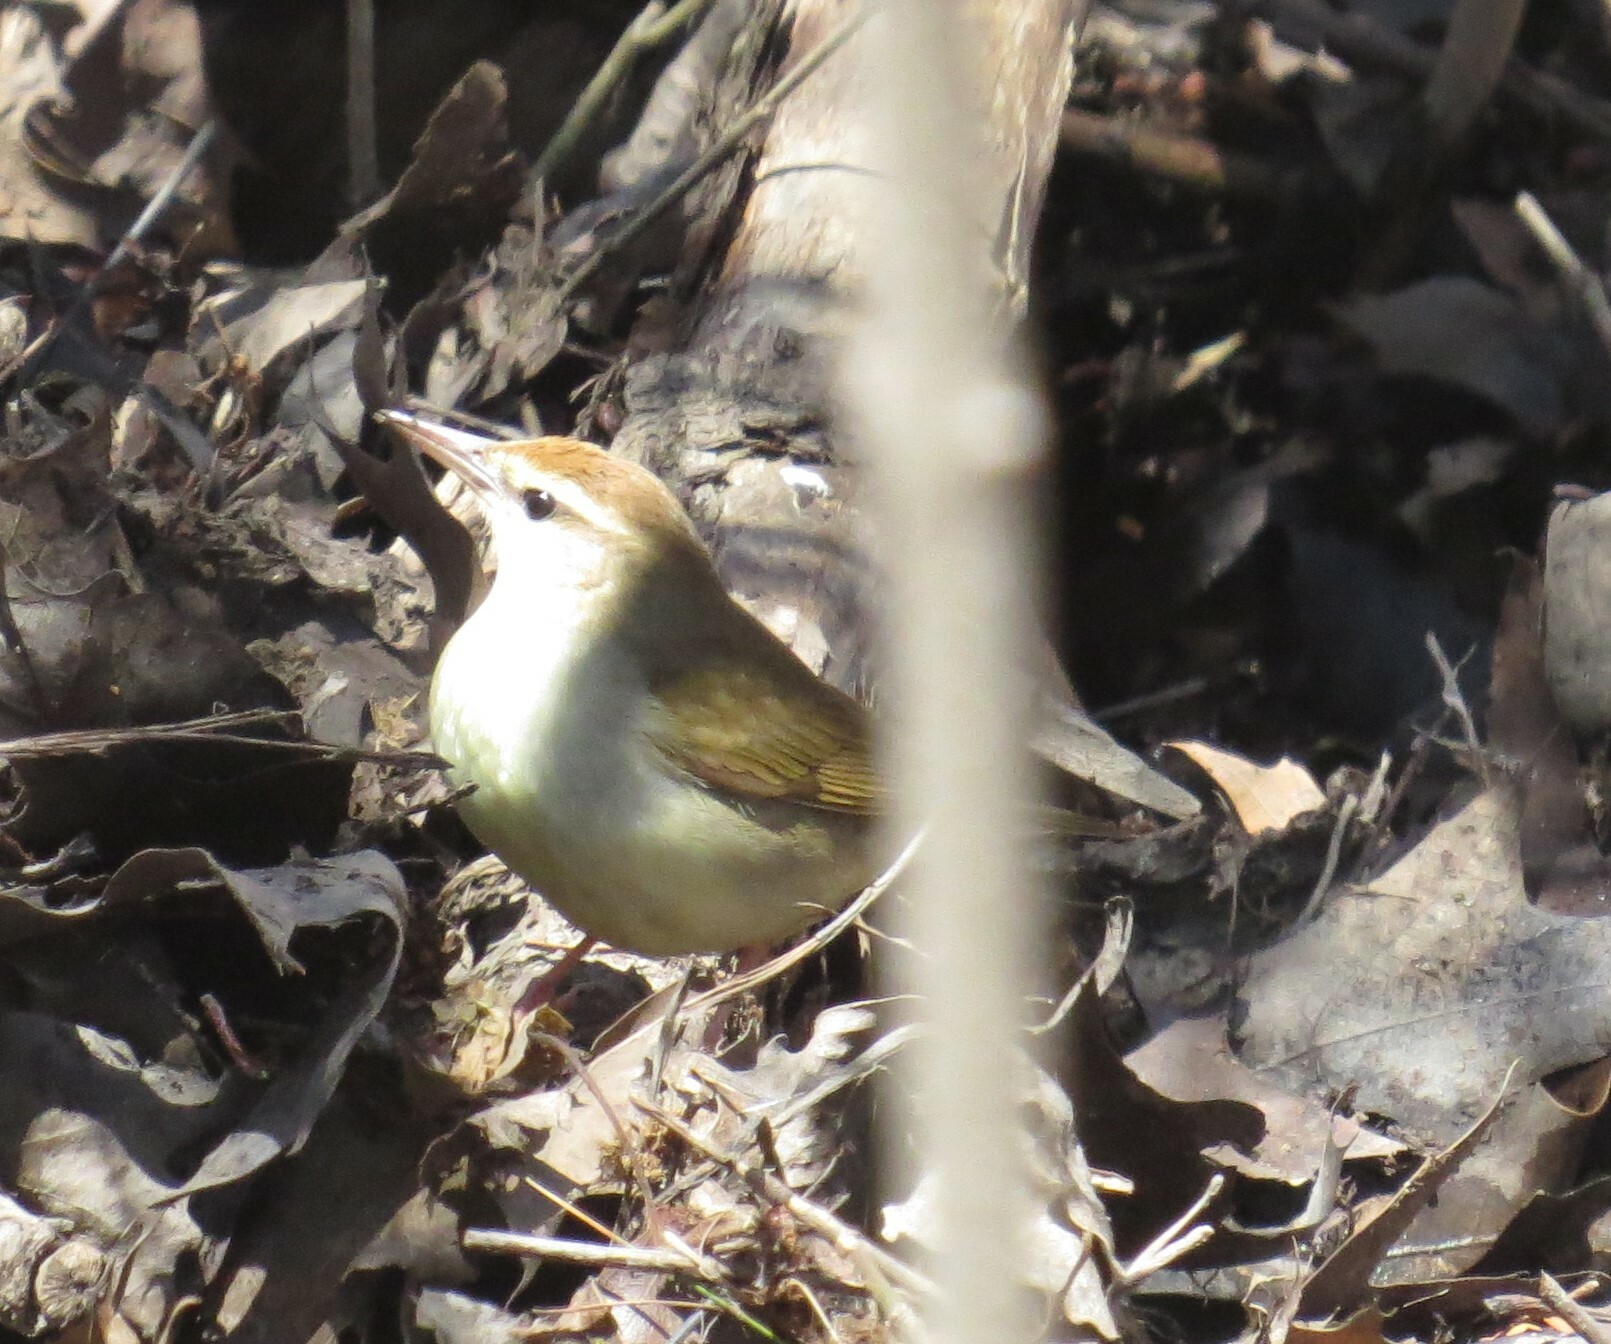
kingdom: Animalia
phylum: Chordata
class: Aves
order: Passeriformes
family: Parulidae
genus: Limnothlypis
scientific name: Limnothlypis swainsonii
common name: Swainson's warbler
